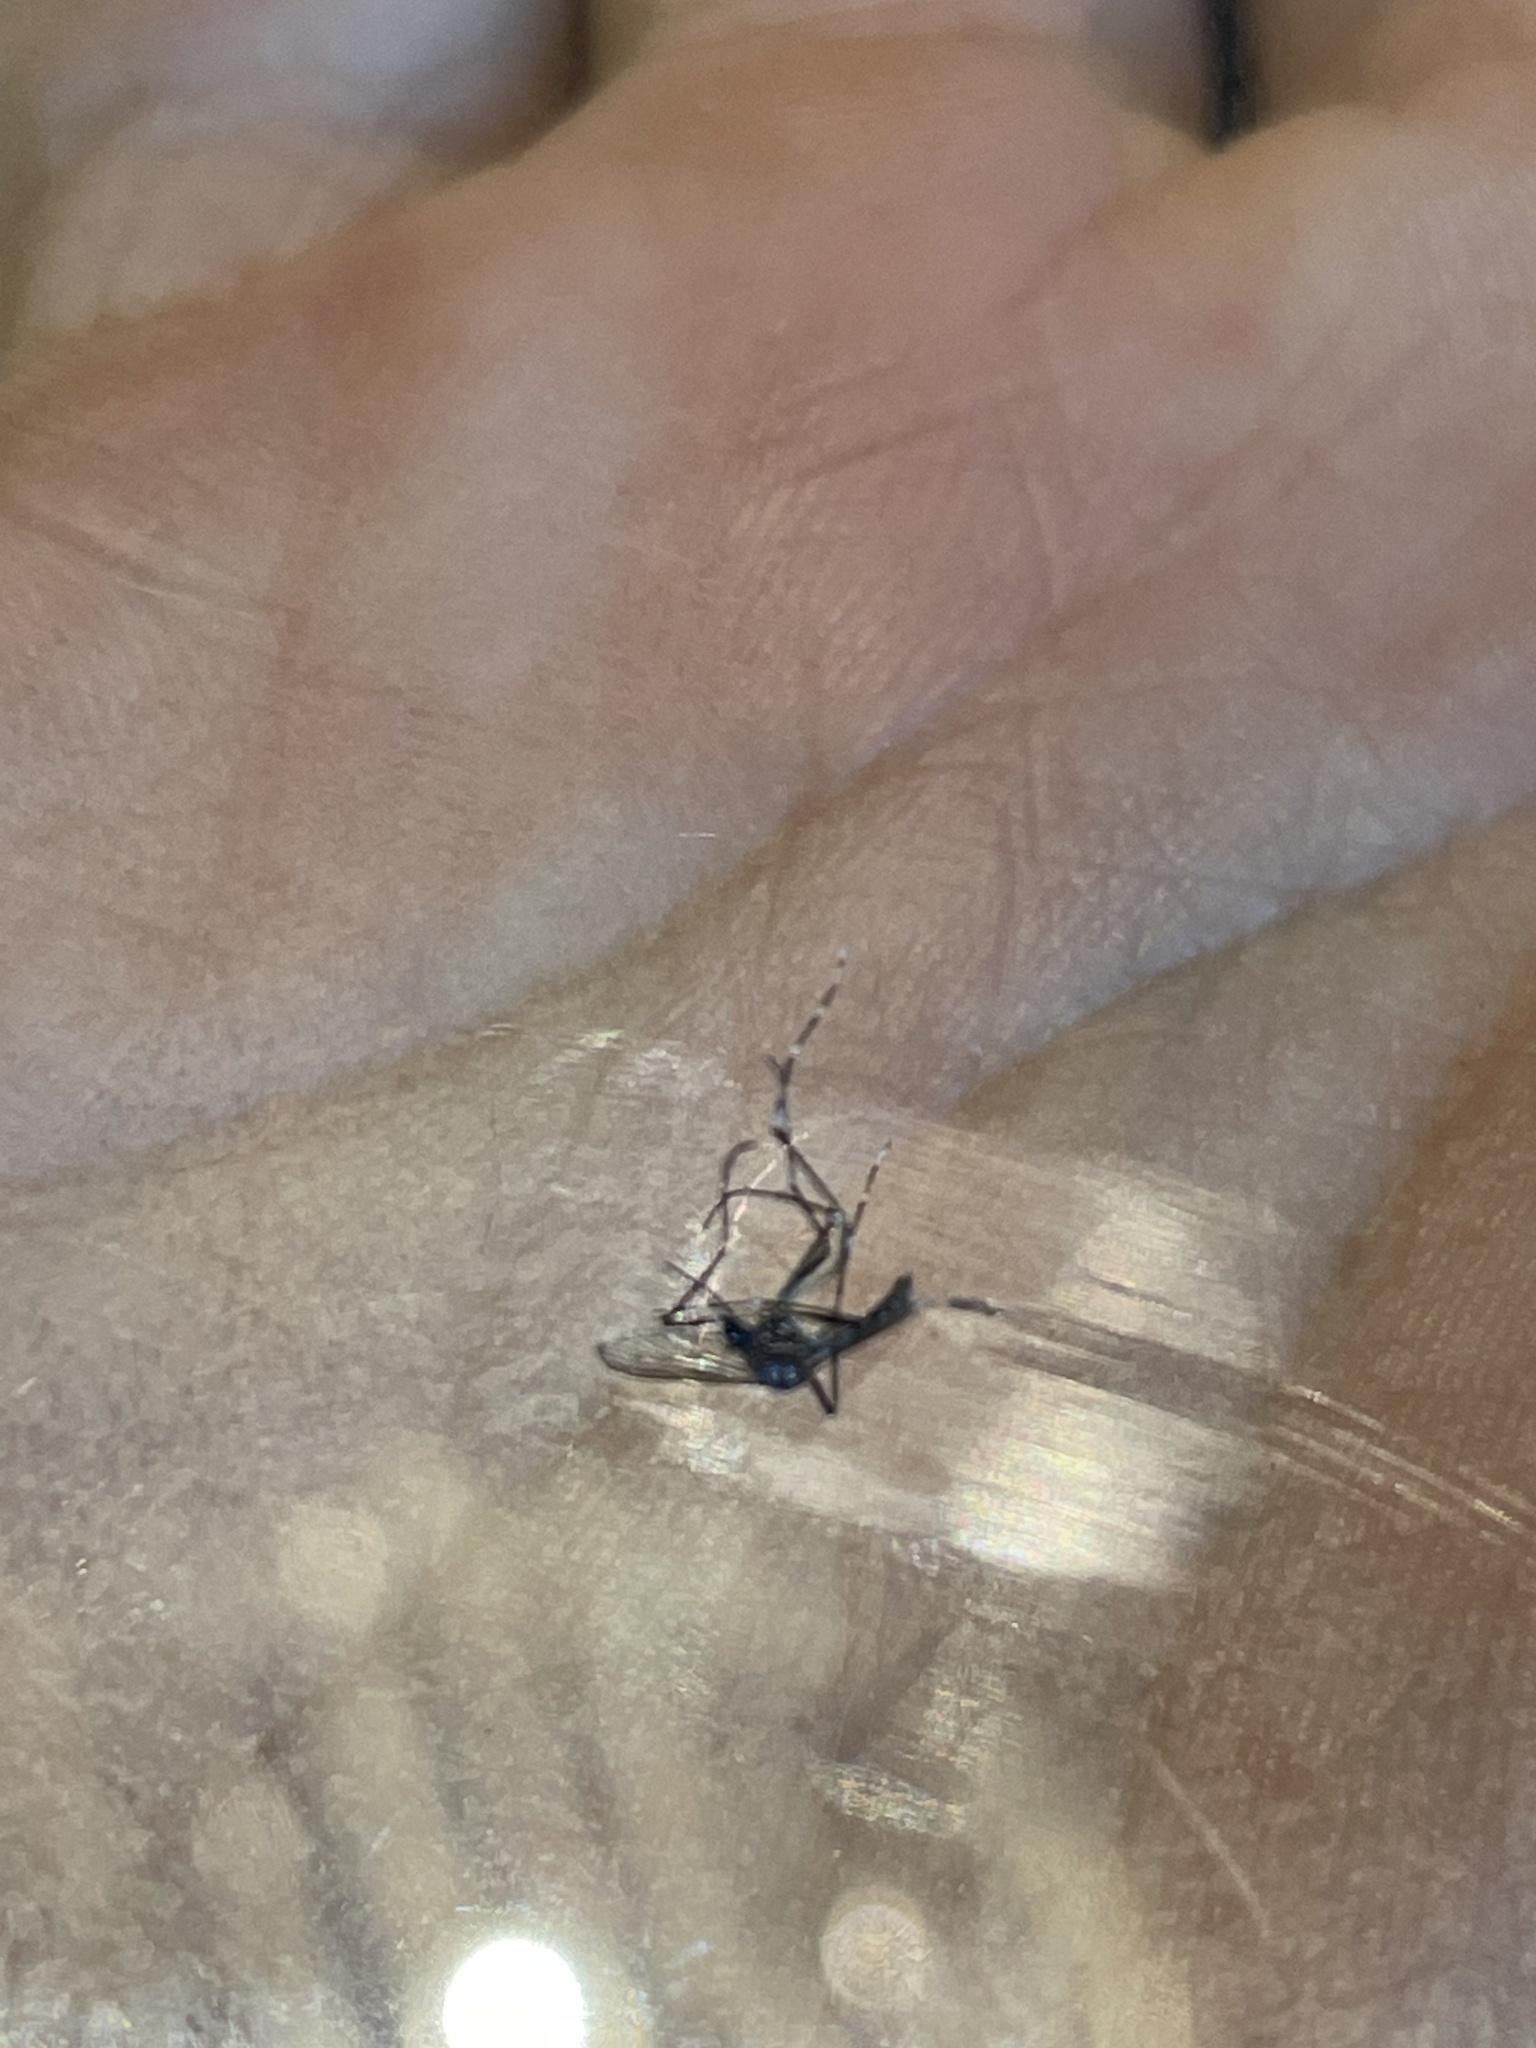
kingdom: Animalia
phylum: Arthropoda
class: Insecta
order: Diptera
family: Culicidae
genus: Aedes
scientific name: Aedes albopictus
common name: Tiger mosquito
